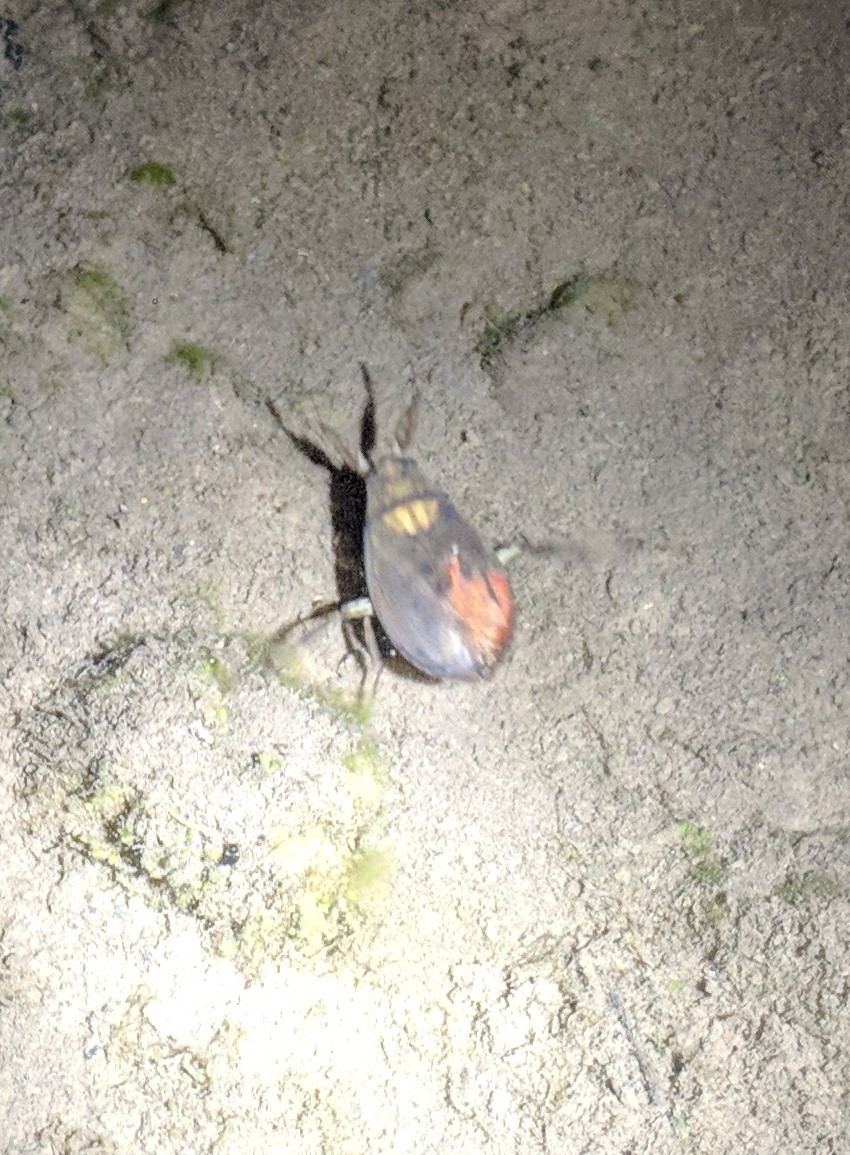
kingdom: Animalia
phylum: Arthropoda
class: Insecta
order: Hemiptera
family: Belostomatidae
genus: Abedus
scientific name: Abedus indentatus
